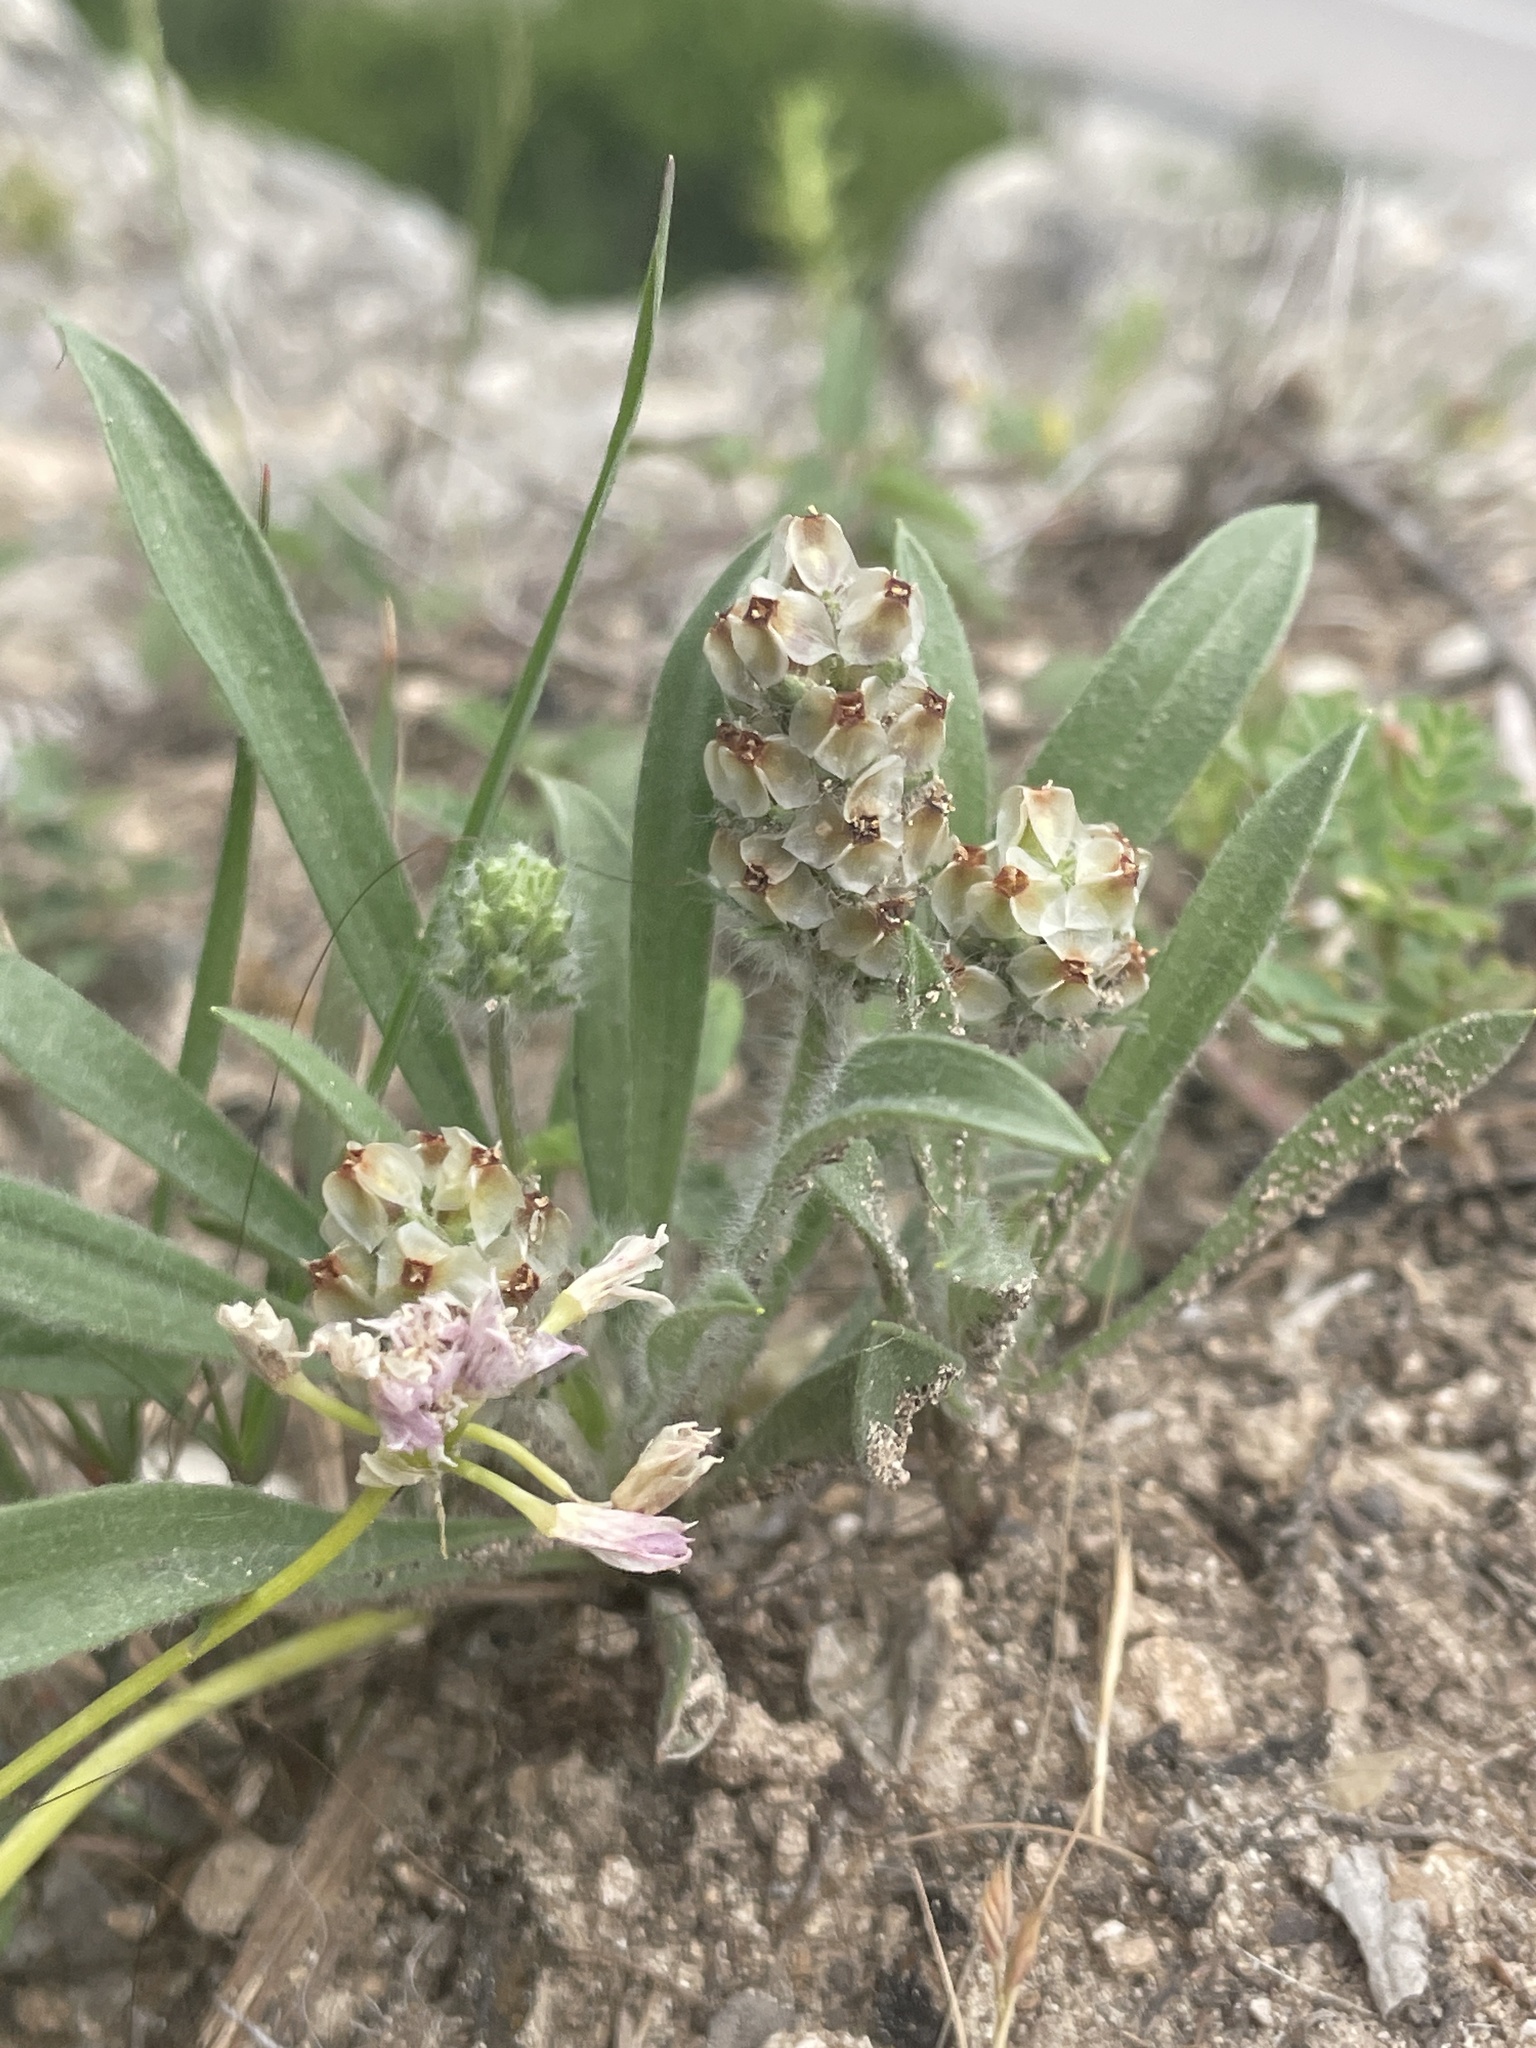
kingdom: Plantae
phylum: Tracheophyta
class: Magnoliopsida
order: Lamiales
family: Plantaginaceae
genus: Plantago
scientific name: Plantago helleri
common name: Heller's plantain
